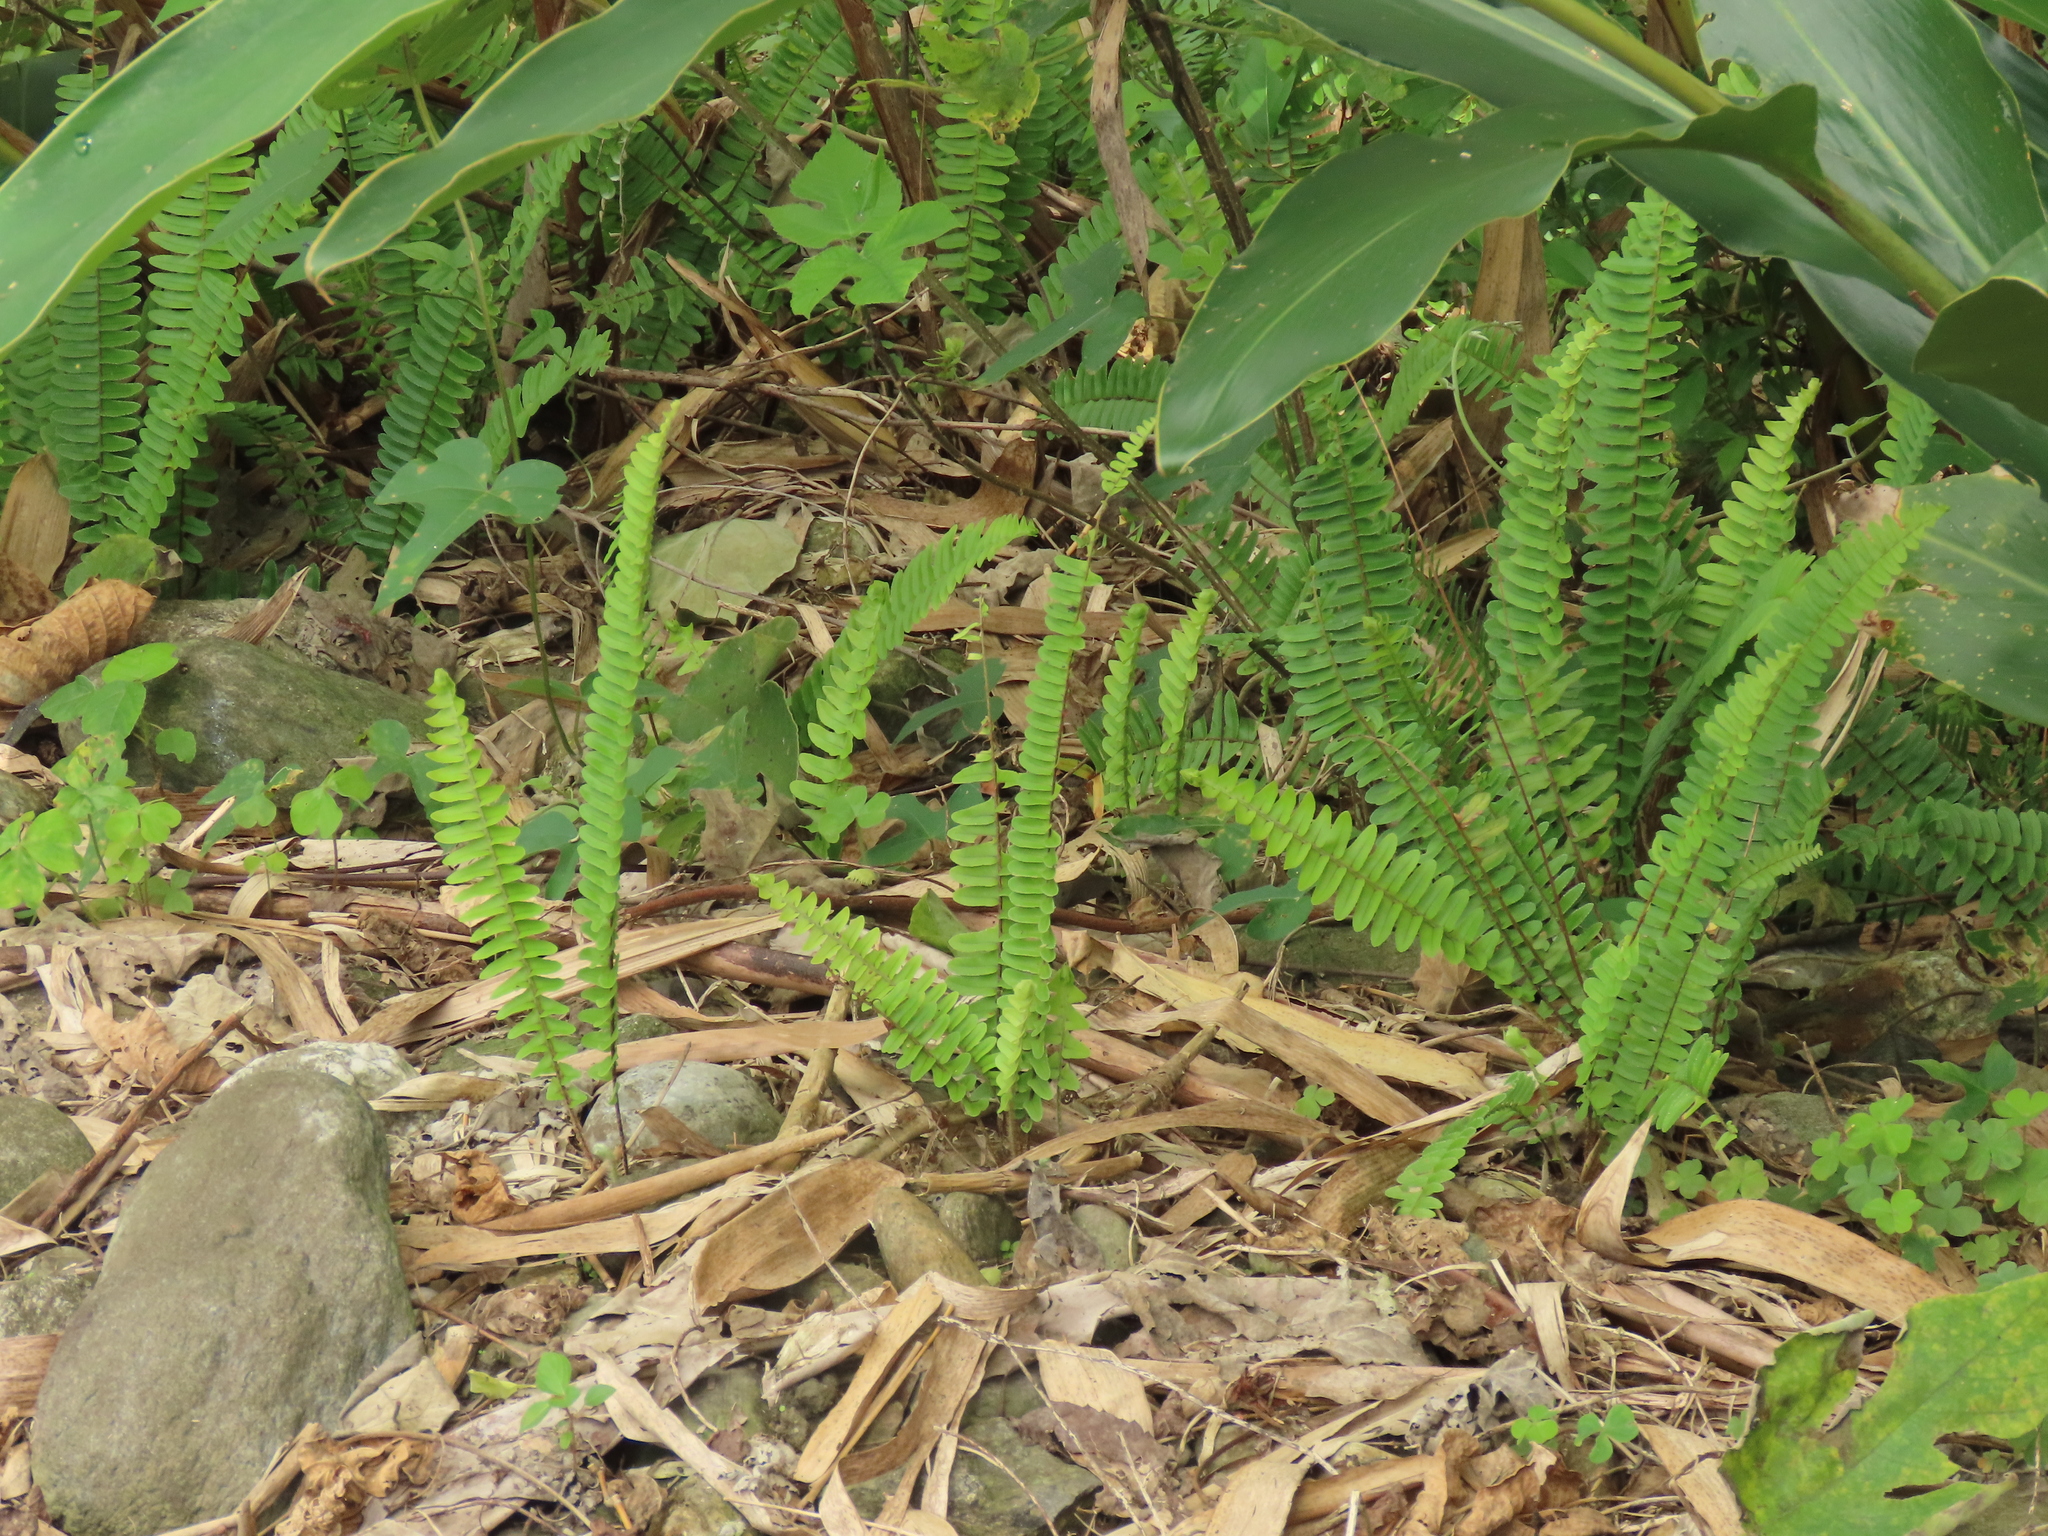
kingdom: Plantae
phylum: Tracheophyta
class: Polypodiopsida
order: Polypodiales
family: Nephrolepidaceae
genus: Nephrolepis
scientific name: Nephrolepis cordifolia
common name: Narrow swordfern
